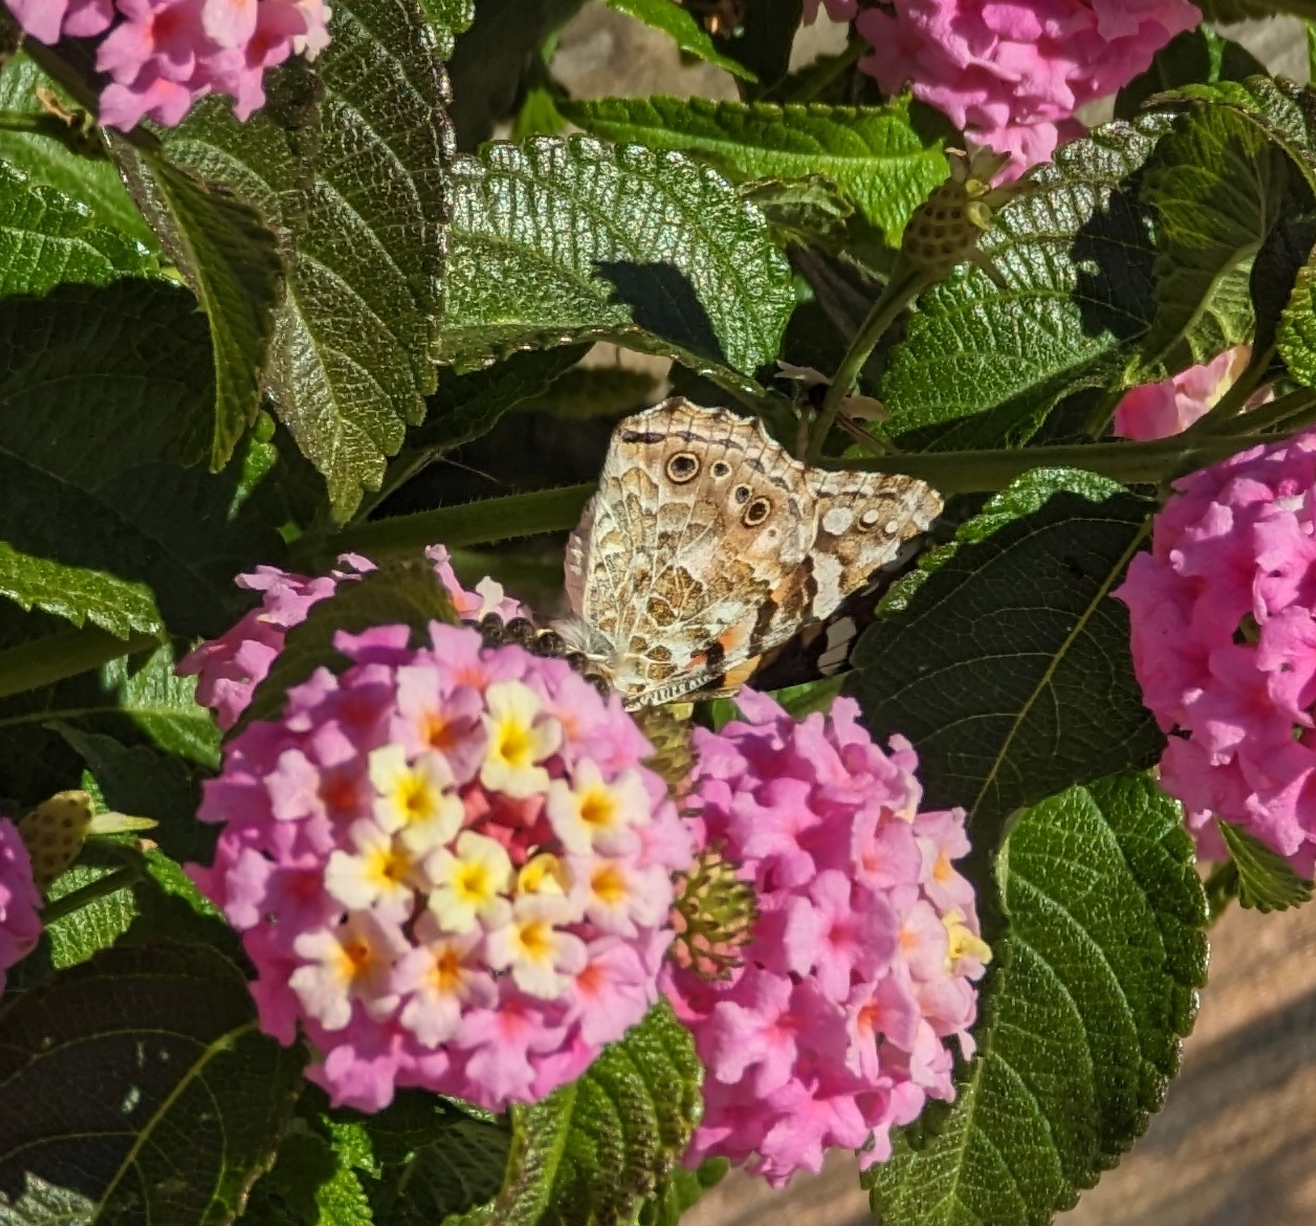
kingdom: Animalia
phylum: Arthropoda
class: Insecta
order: Lepidoptera
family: Nymphalidae
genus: Vanessa
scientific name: Vanessa cardui
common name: Painted lady
